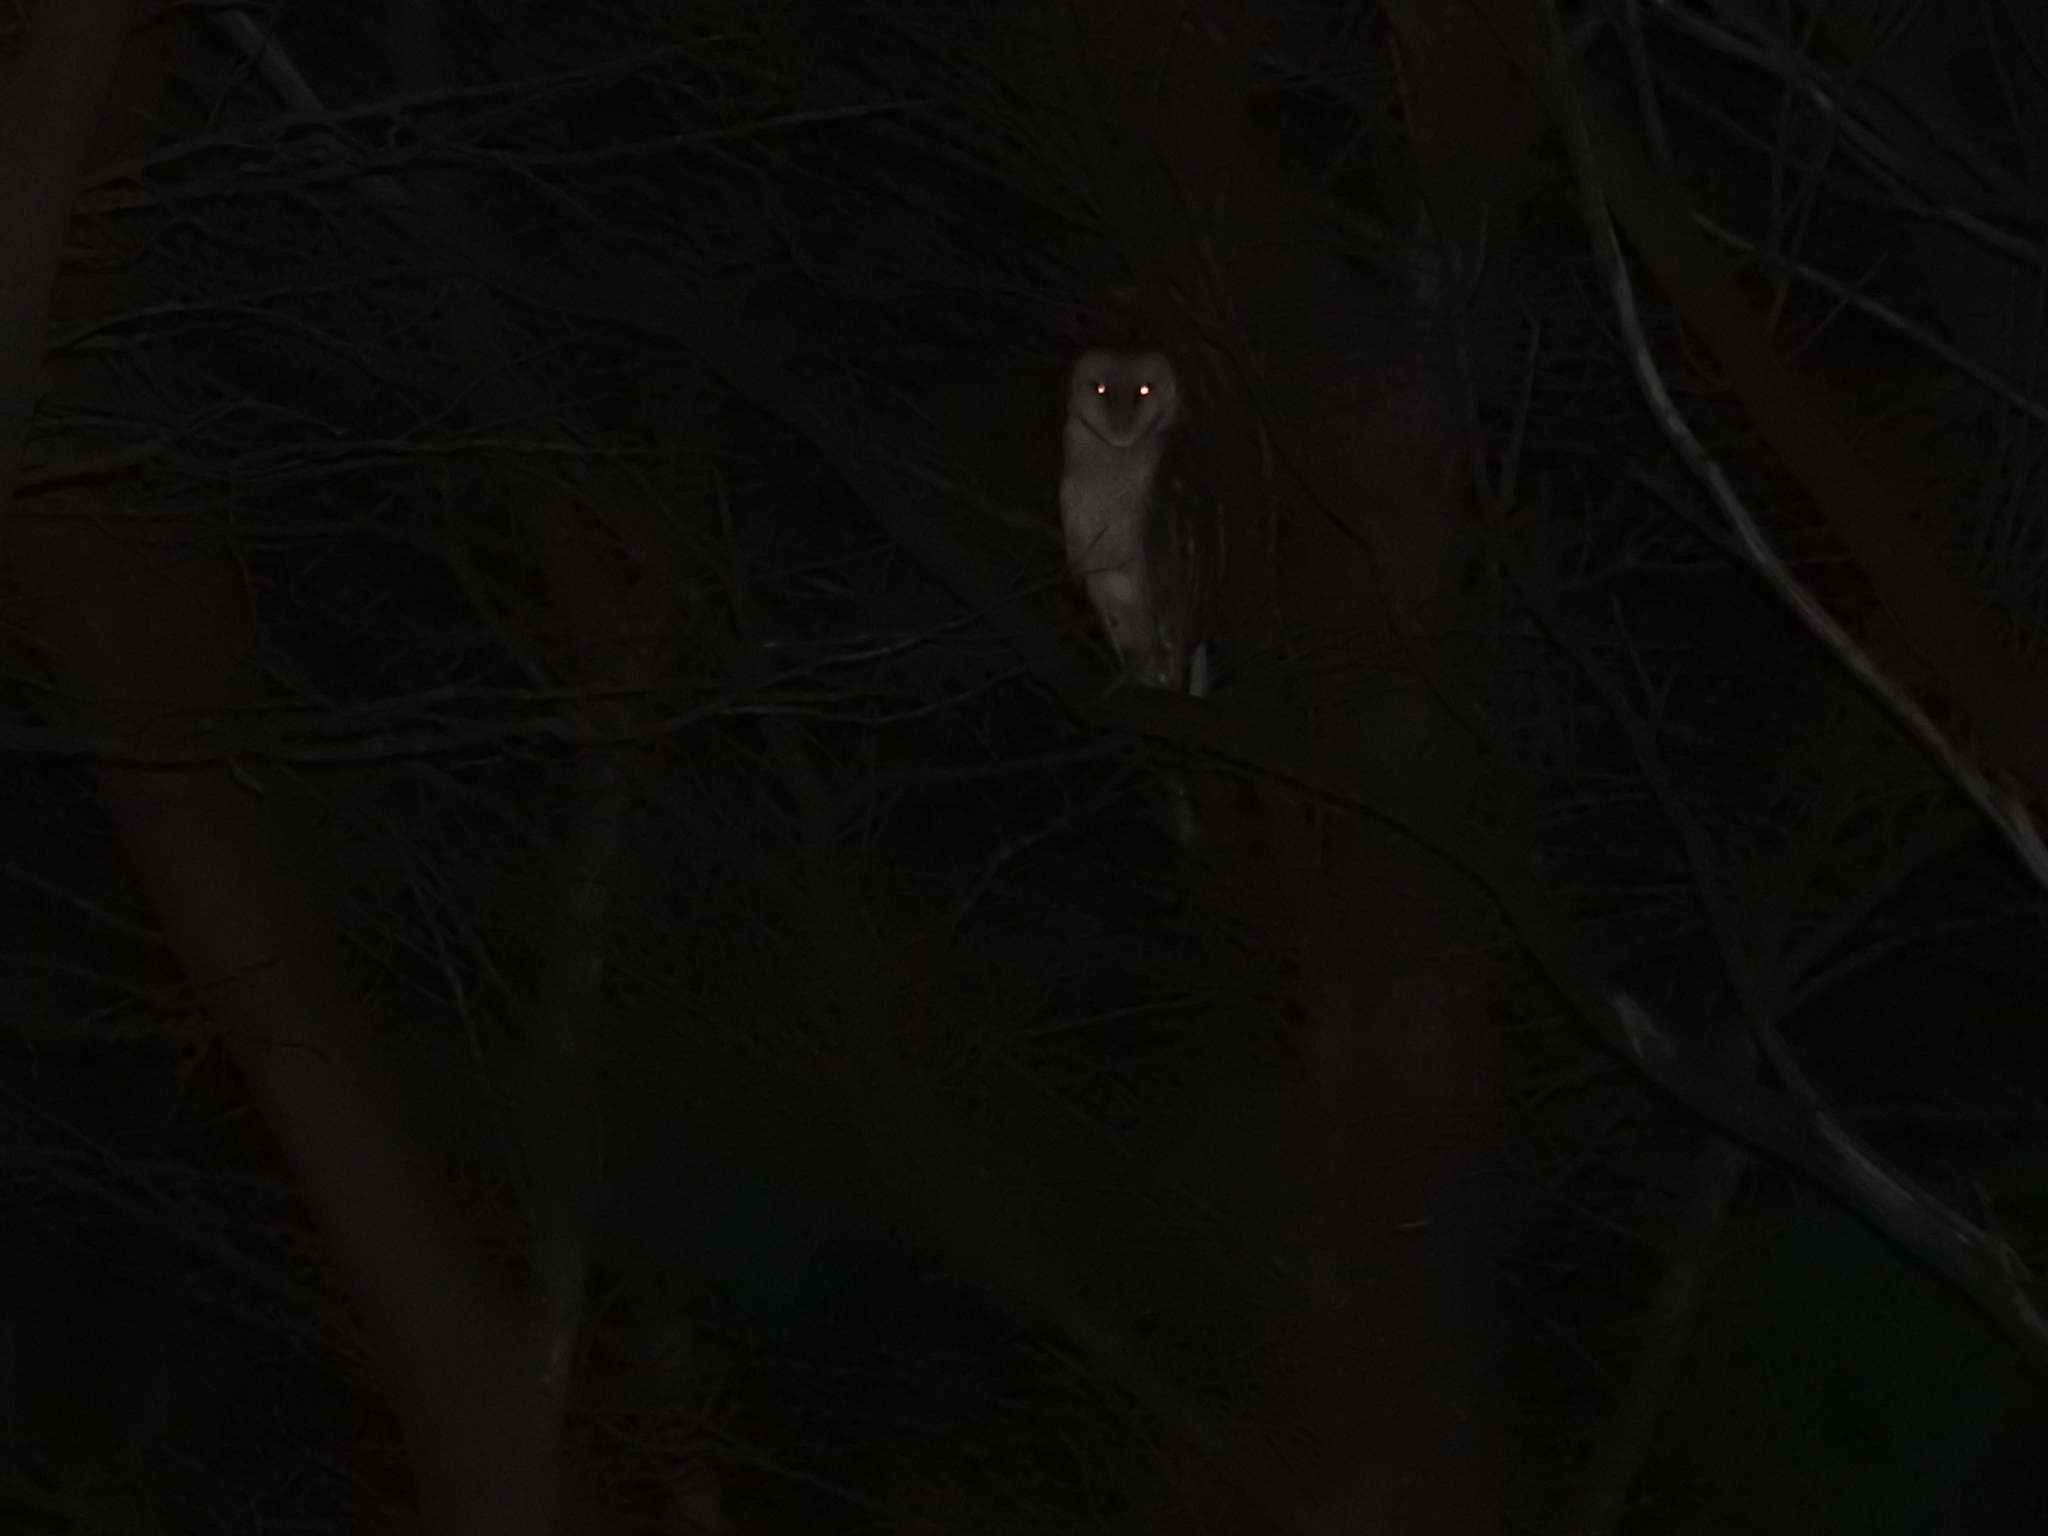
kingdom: Animalia
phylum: Chordata
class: Aves
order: Strigiformes
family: Tytonidae
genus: Tyto
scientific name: Tyto alba
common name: Barn owl
